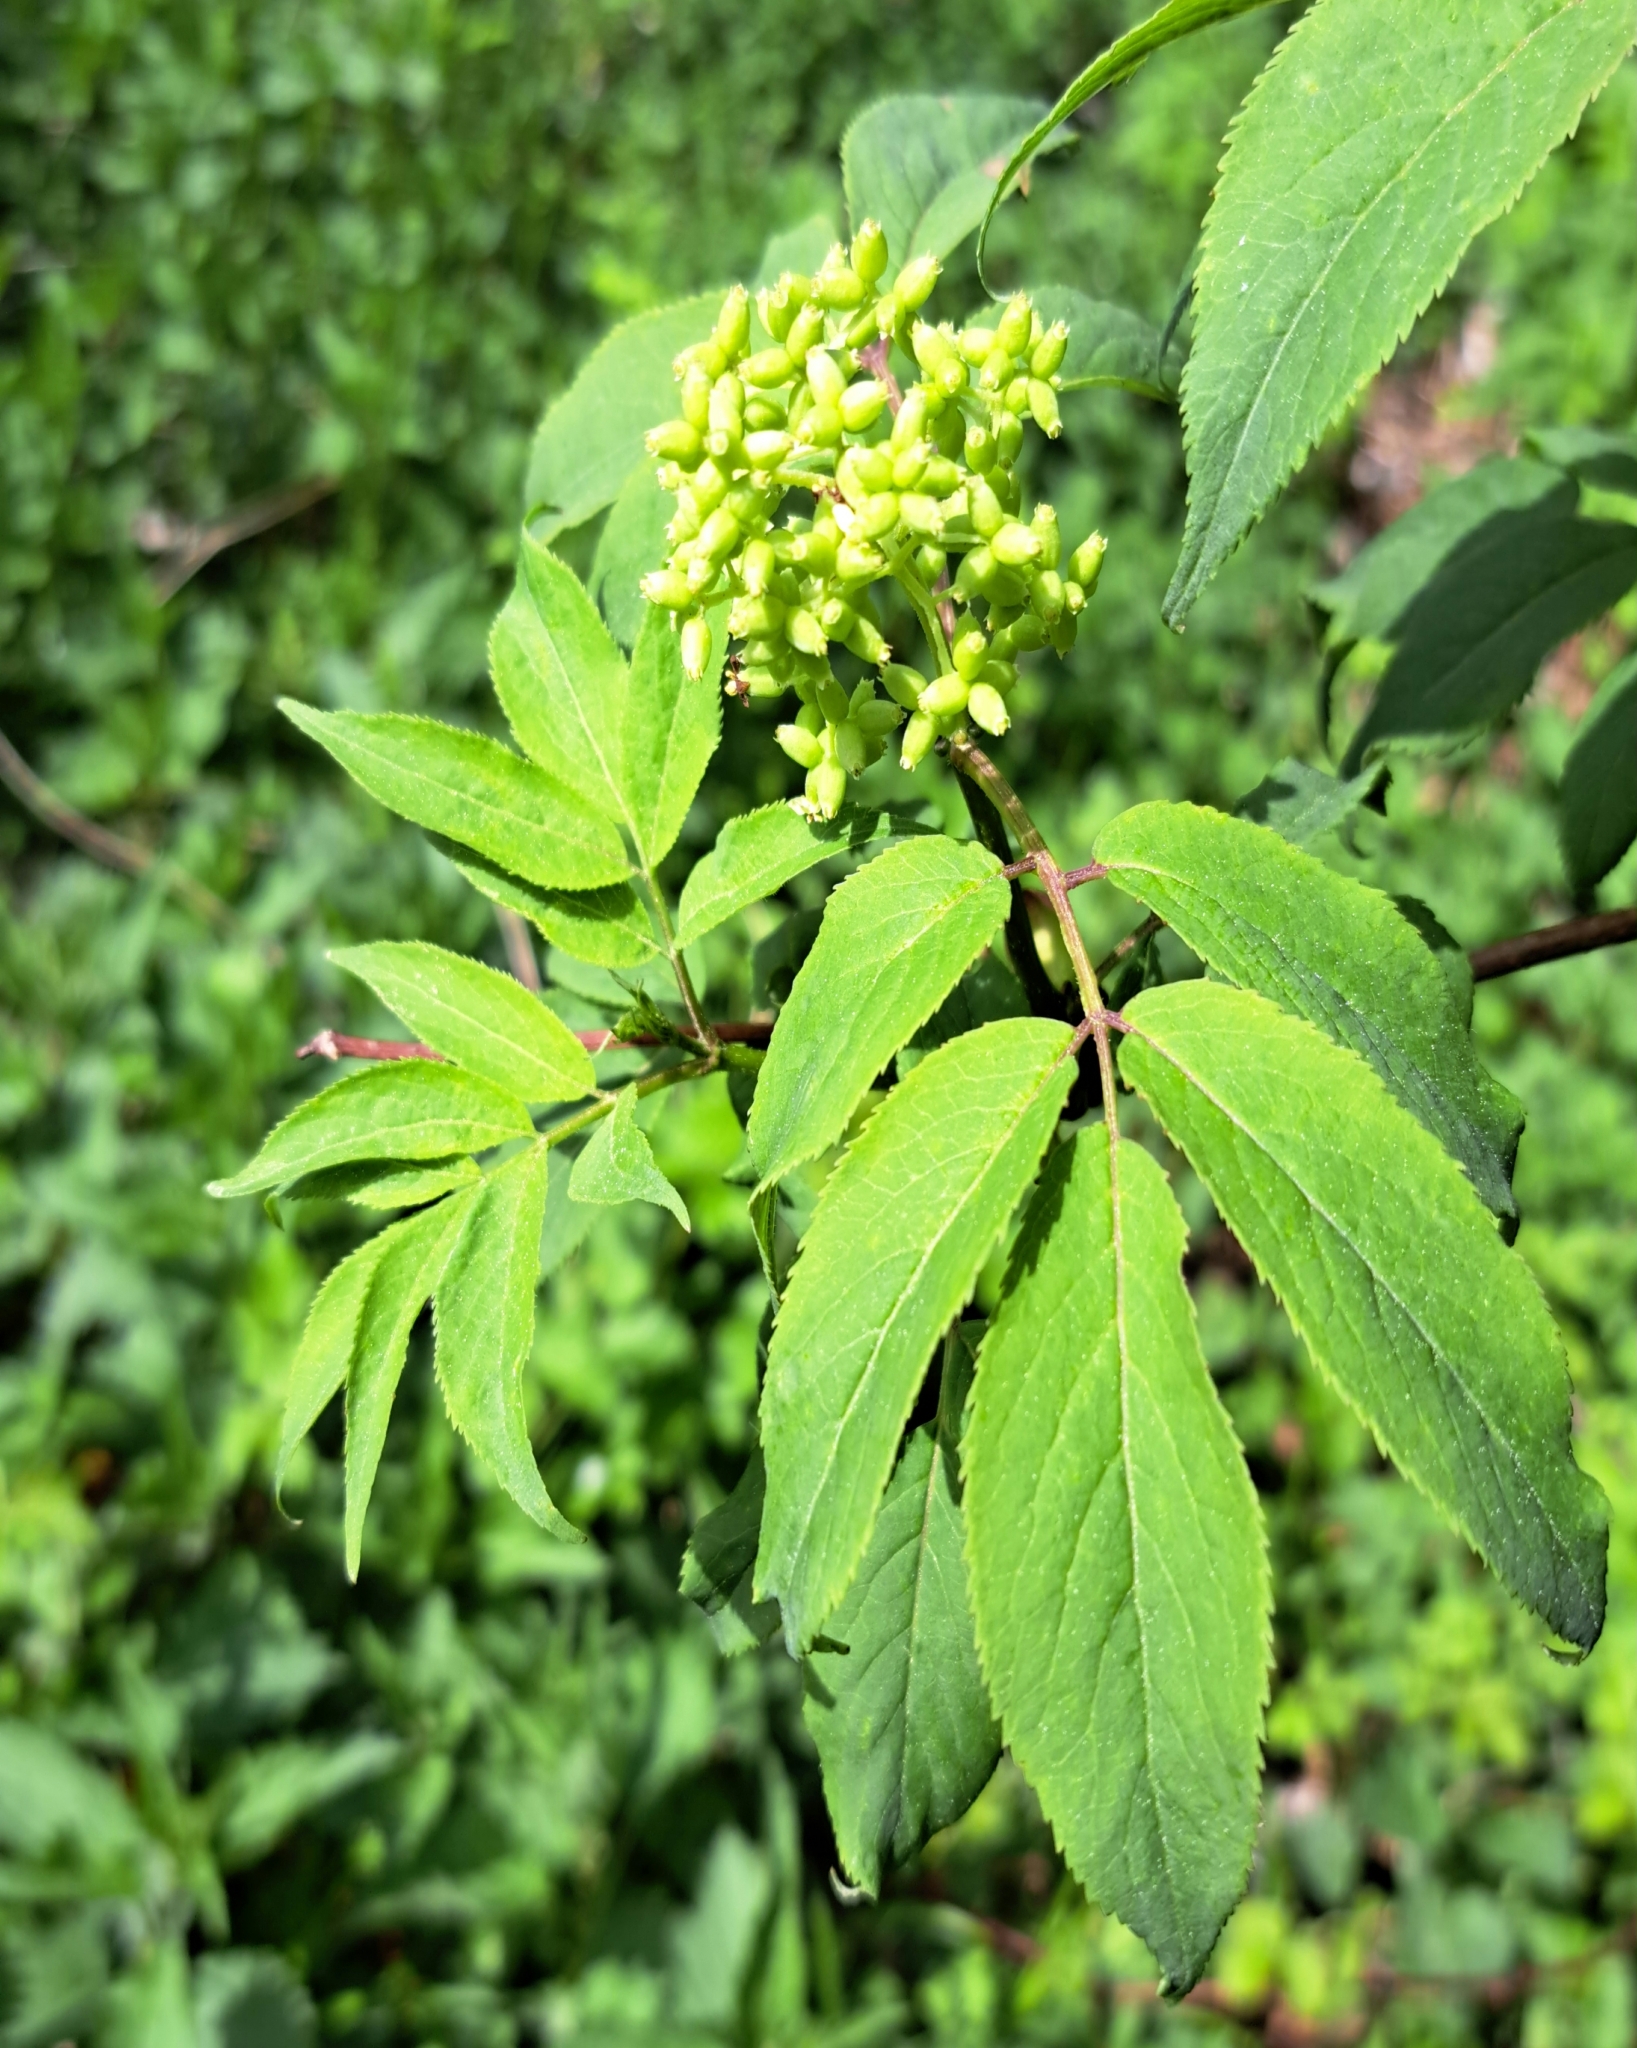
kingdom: Plantae
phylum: Tracheophyta
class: Magnoliopsida
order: Dipsacales
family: Viburnaceae
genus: Sambucus
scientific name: Sambucus racemosa
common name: Red-berried elder
